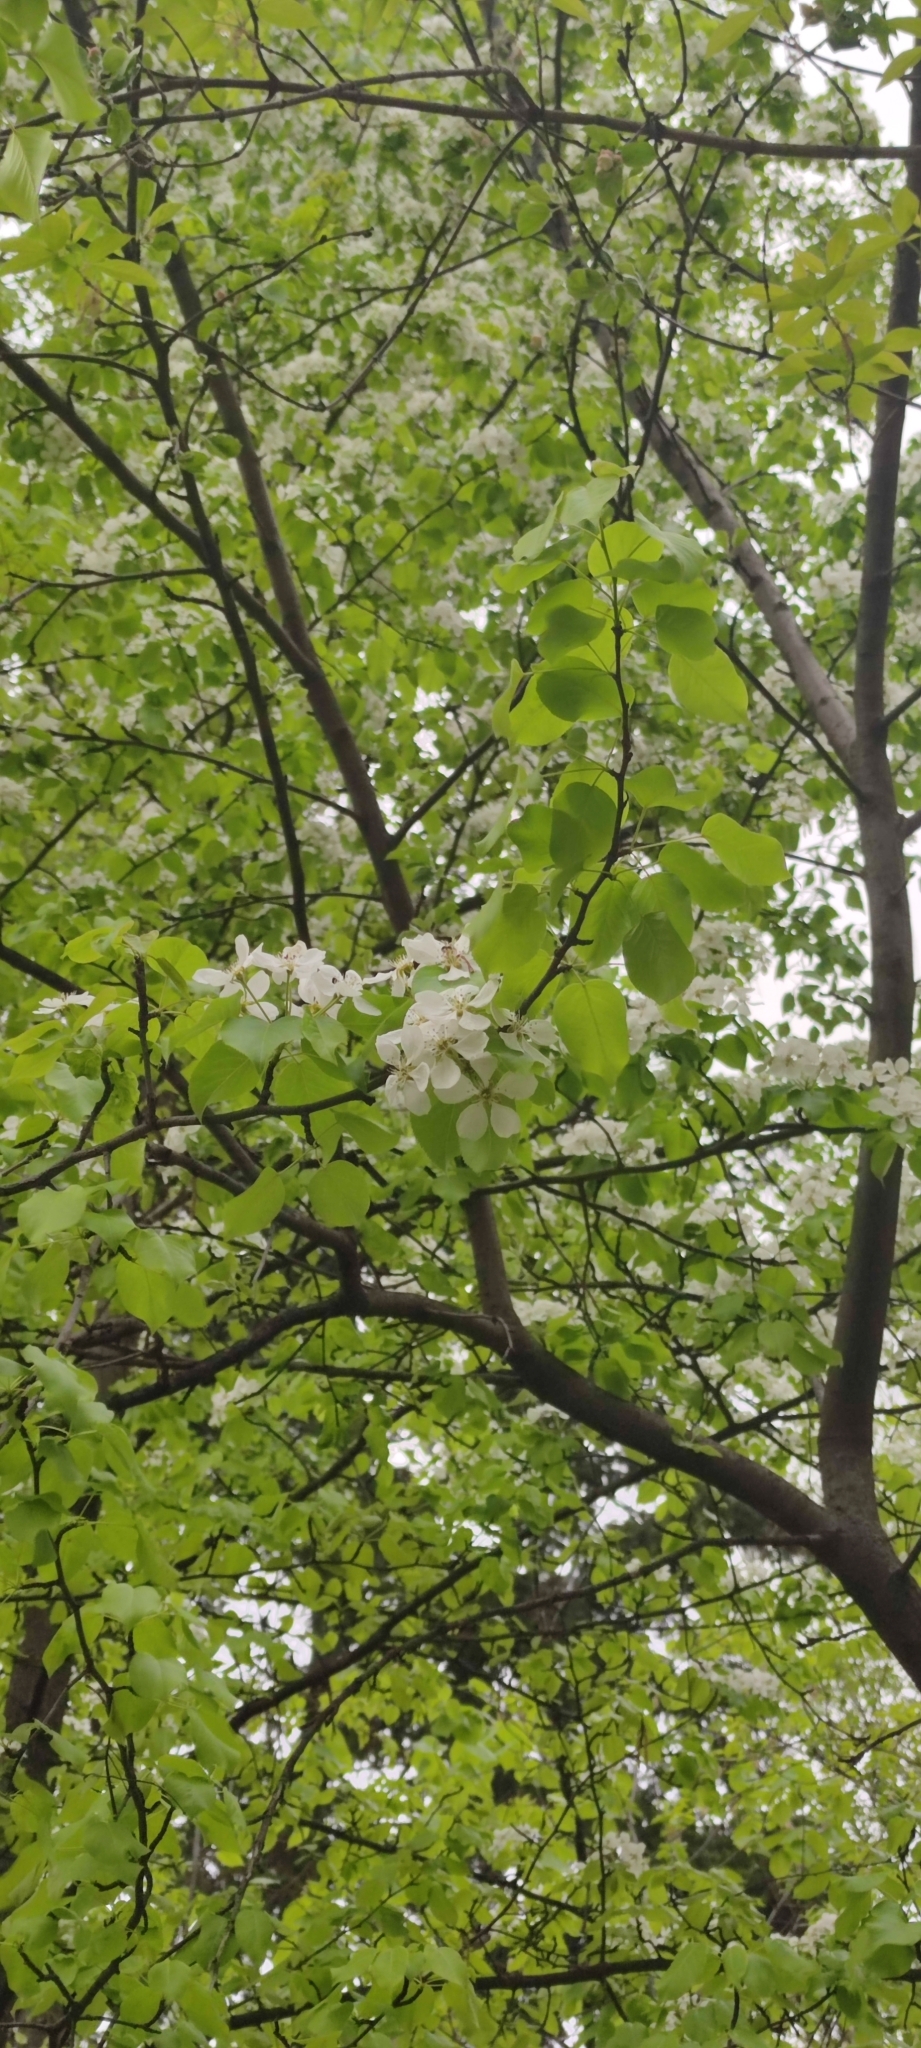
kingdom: Plantae
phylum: Tracheophyta
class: Magnoliopsida
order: Rosales
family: Rosaceae
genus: Pyrus
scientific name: Pyrus communis
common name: Pear
